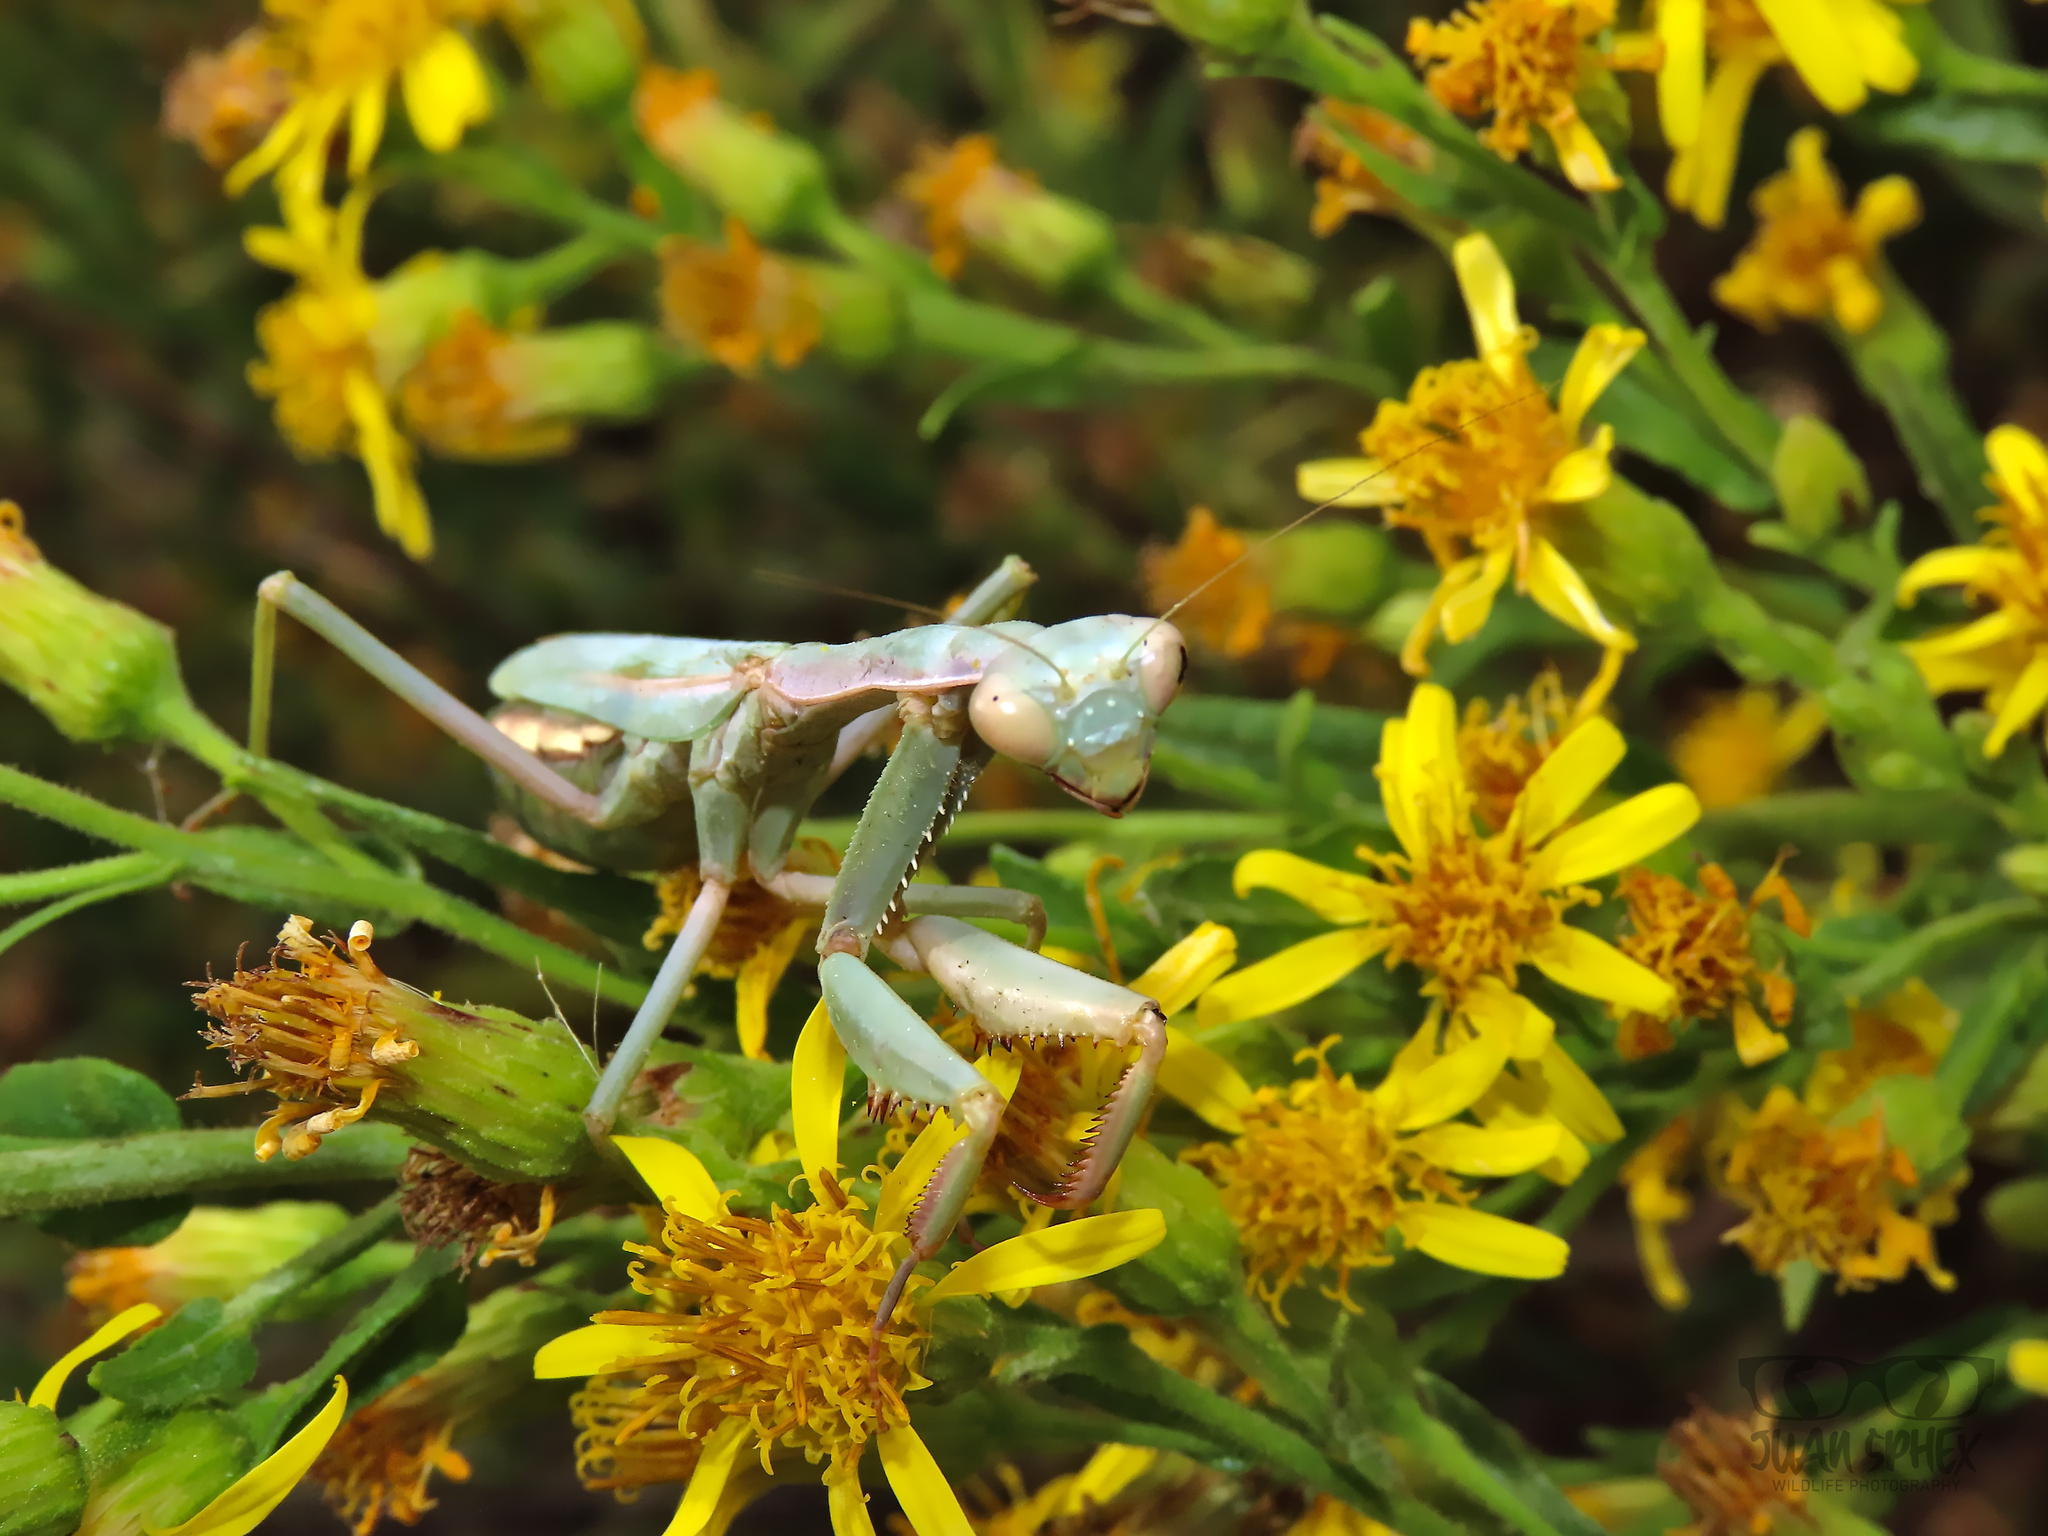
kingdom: Animalia
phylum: Arthropoda
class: Insecta
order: Mantodea
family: Eremiaphilidae
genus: Iris
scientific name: Iris oratoria
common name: Mediterranean mantis
